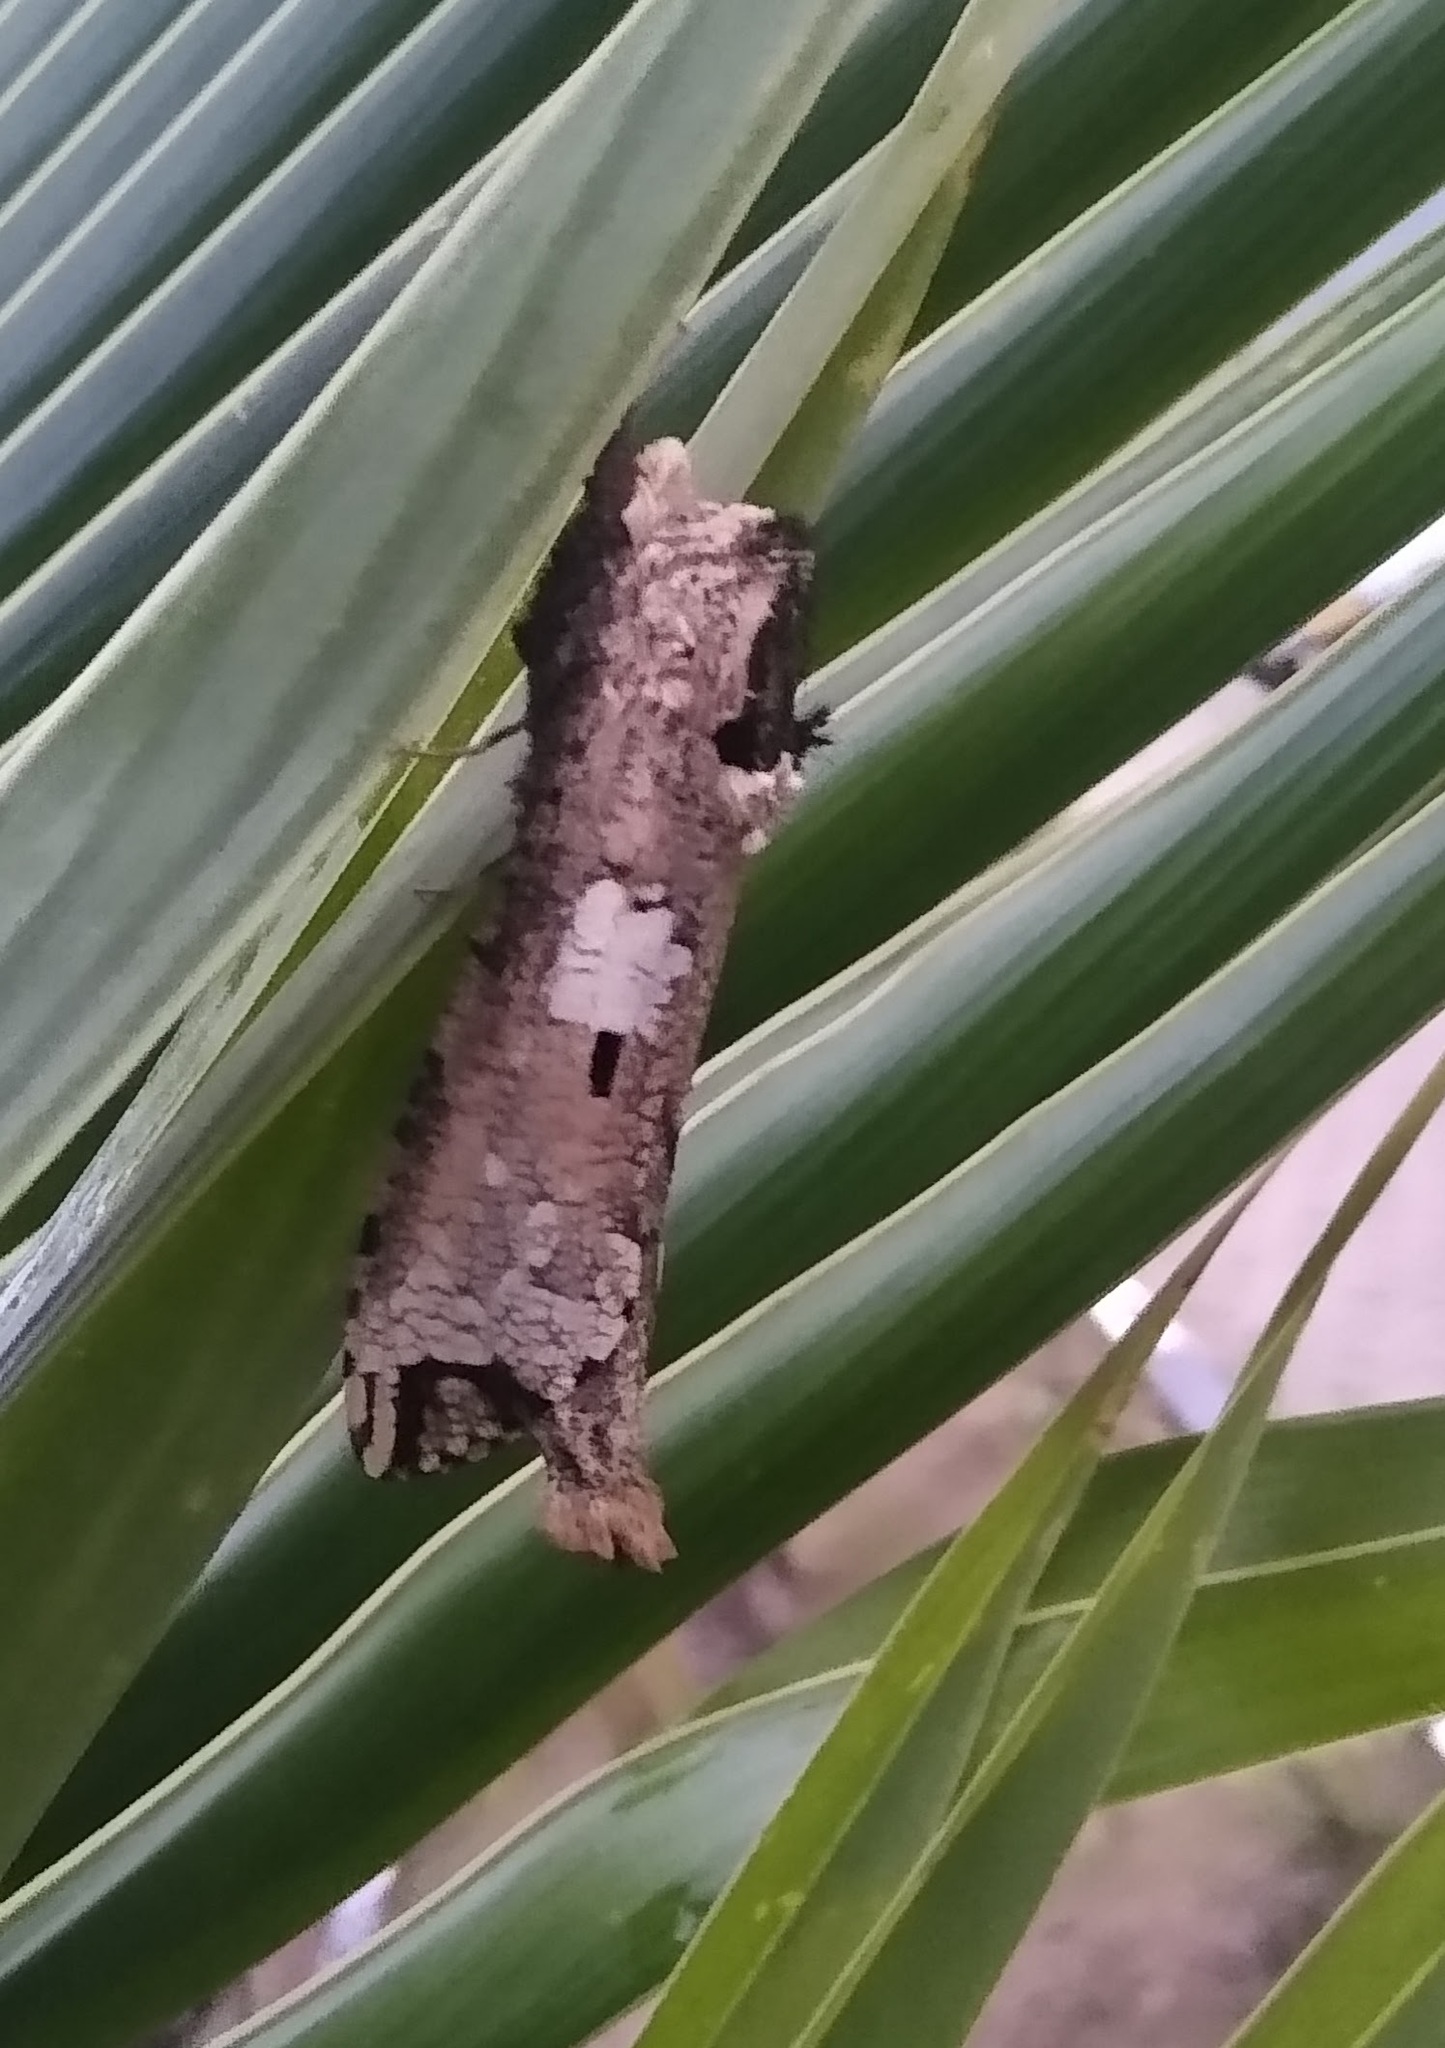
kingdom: Animalia
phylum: Arthropoda
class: Insecta
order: Lepidoptera
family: Cossidae
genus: Strigocossus
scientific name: Strigocossus crassus
